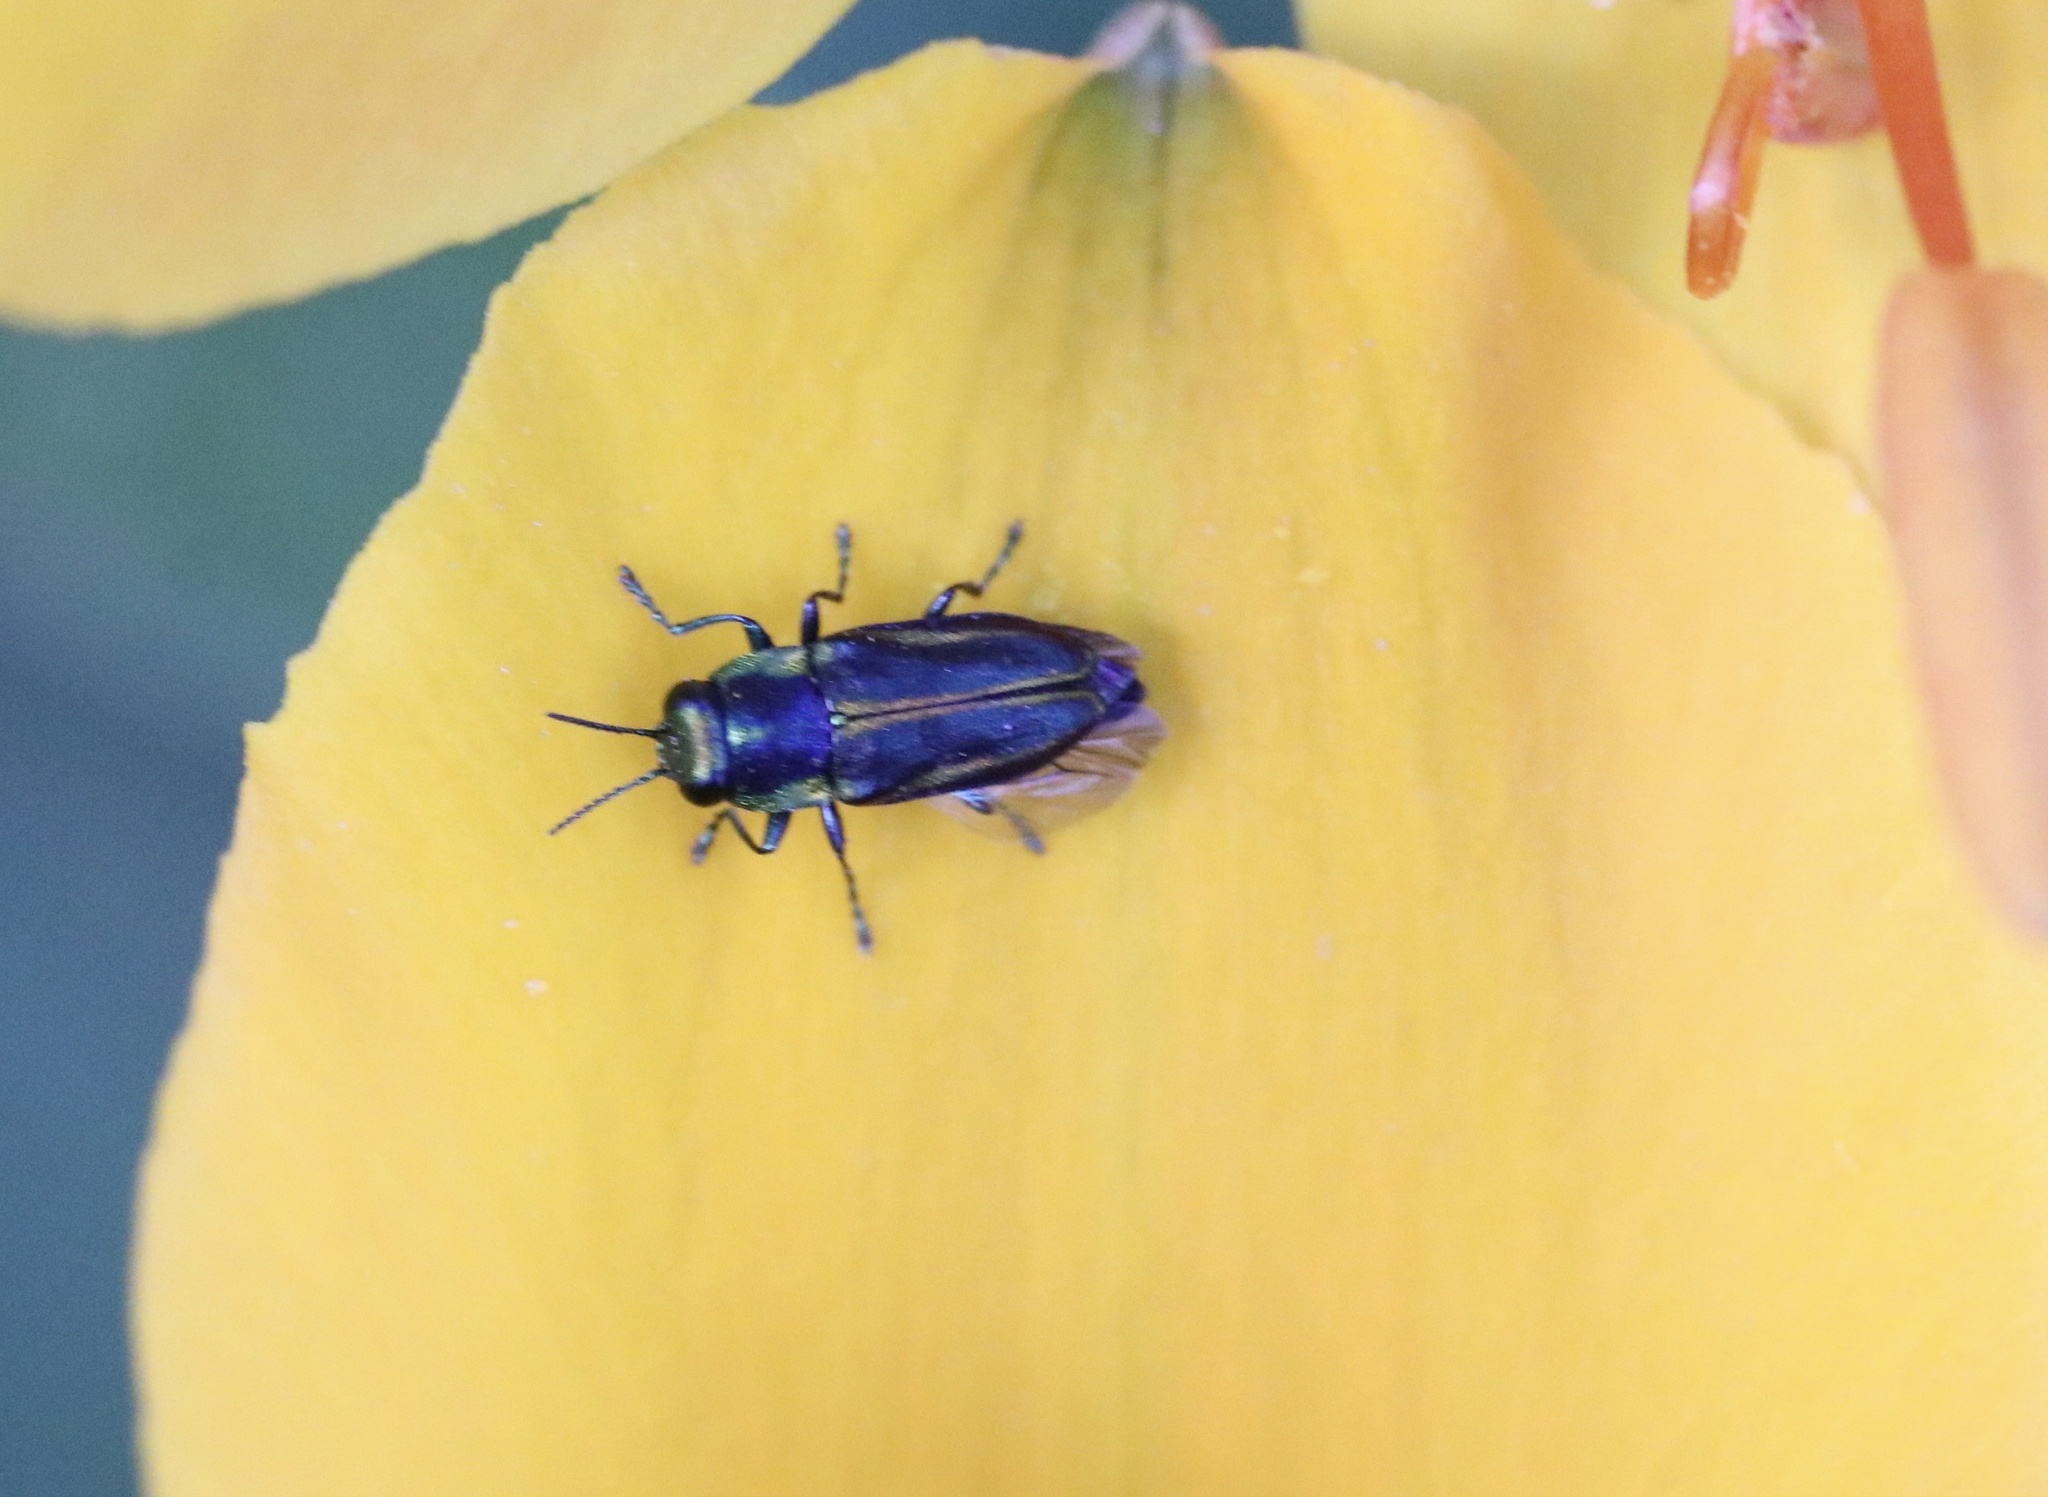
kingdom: Animalia
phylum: Arthropoda
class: Insecta
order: Coleoptera
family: Buprestidae
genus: Bilyaxia
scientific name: Bilyaxia concinna
